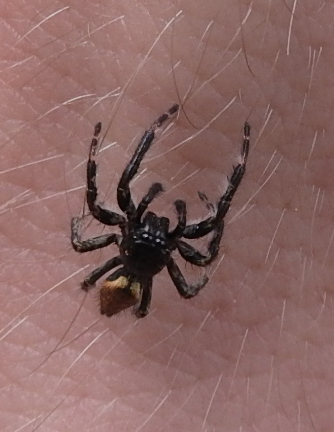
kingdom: Animalia
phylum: Arthropoda
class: Arachnida
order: Araneae
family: Salticidae
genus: Carrhotus
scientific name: Carrhotus xanthogramma
